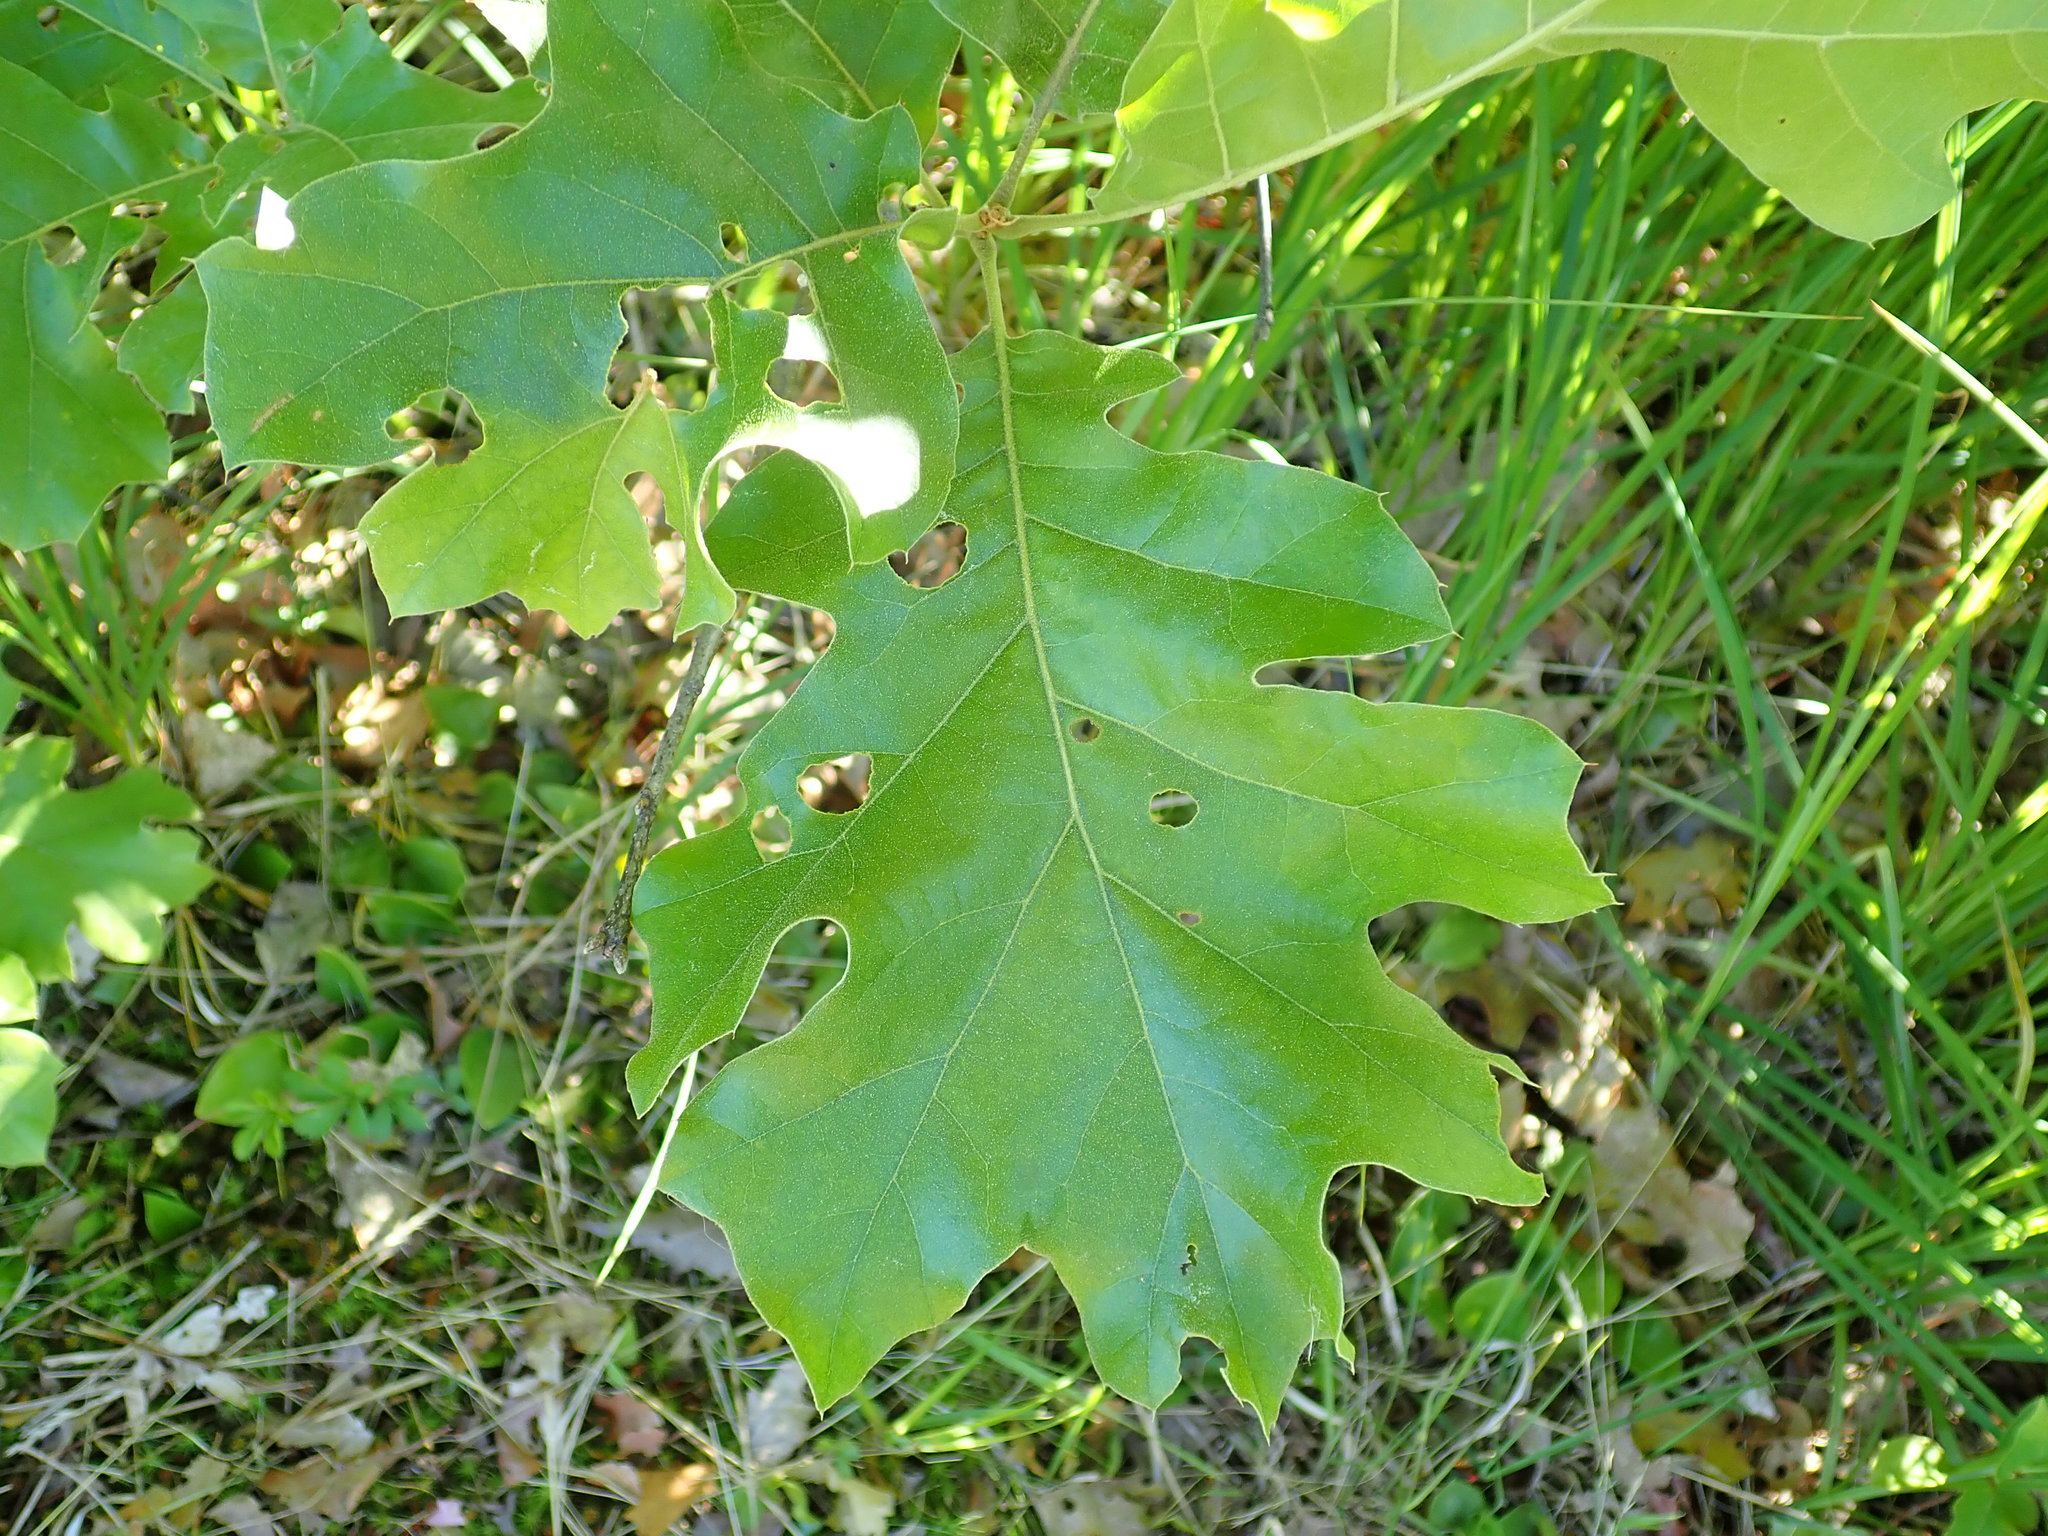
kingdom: Plantae
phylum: Tracheophyta
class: Magnoliopsida
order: Fagales
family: Fagaceae
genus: Quercus
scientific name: Quercus velutina
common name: Black oak
